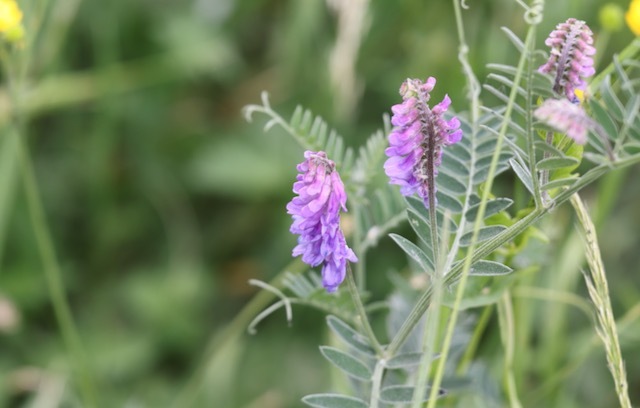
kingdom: Plantae
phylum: Tracheophyta
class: Magnoliopsida
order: Fabales
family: Fabaceae
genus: Vicia
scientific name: Vicia cracca
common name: Bird vetch
